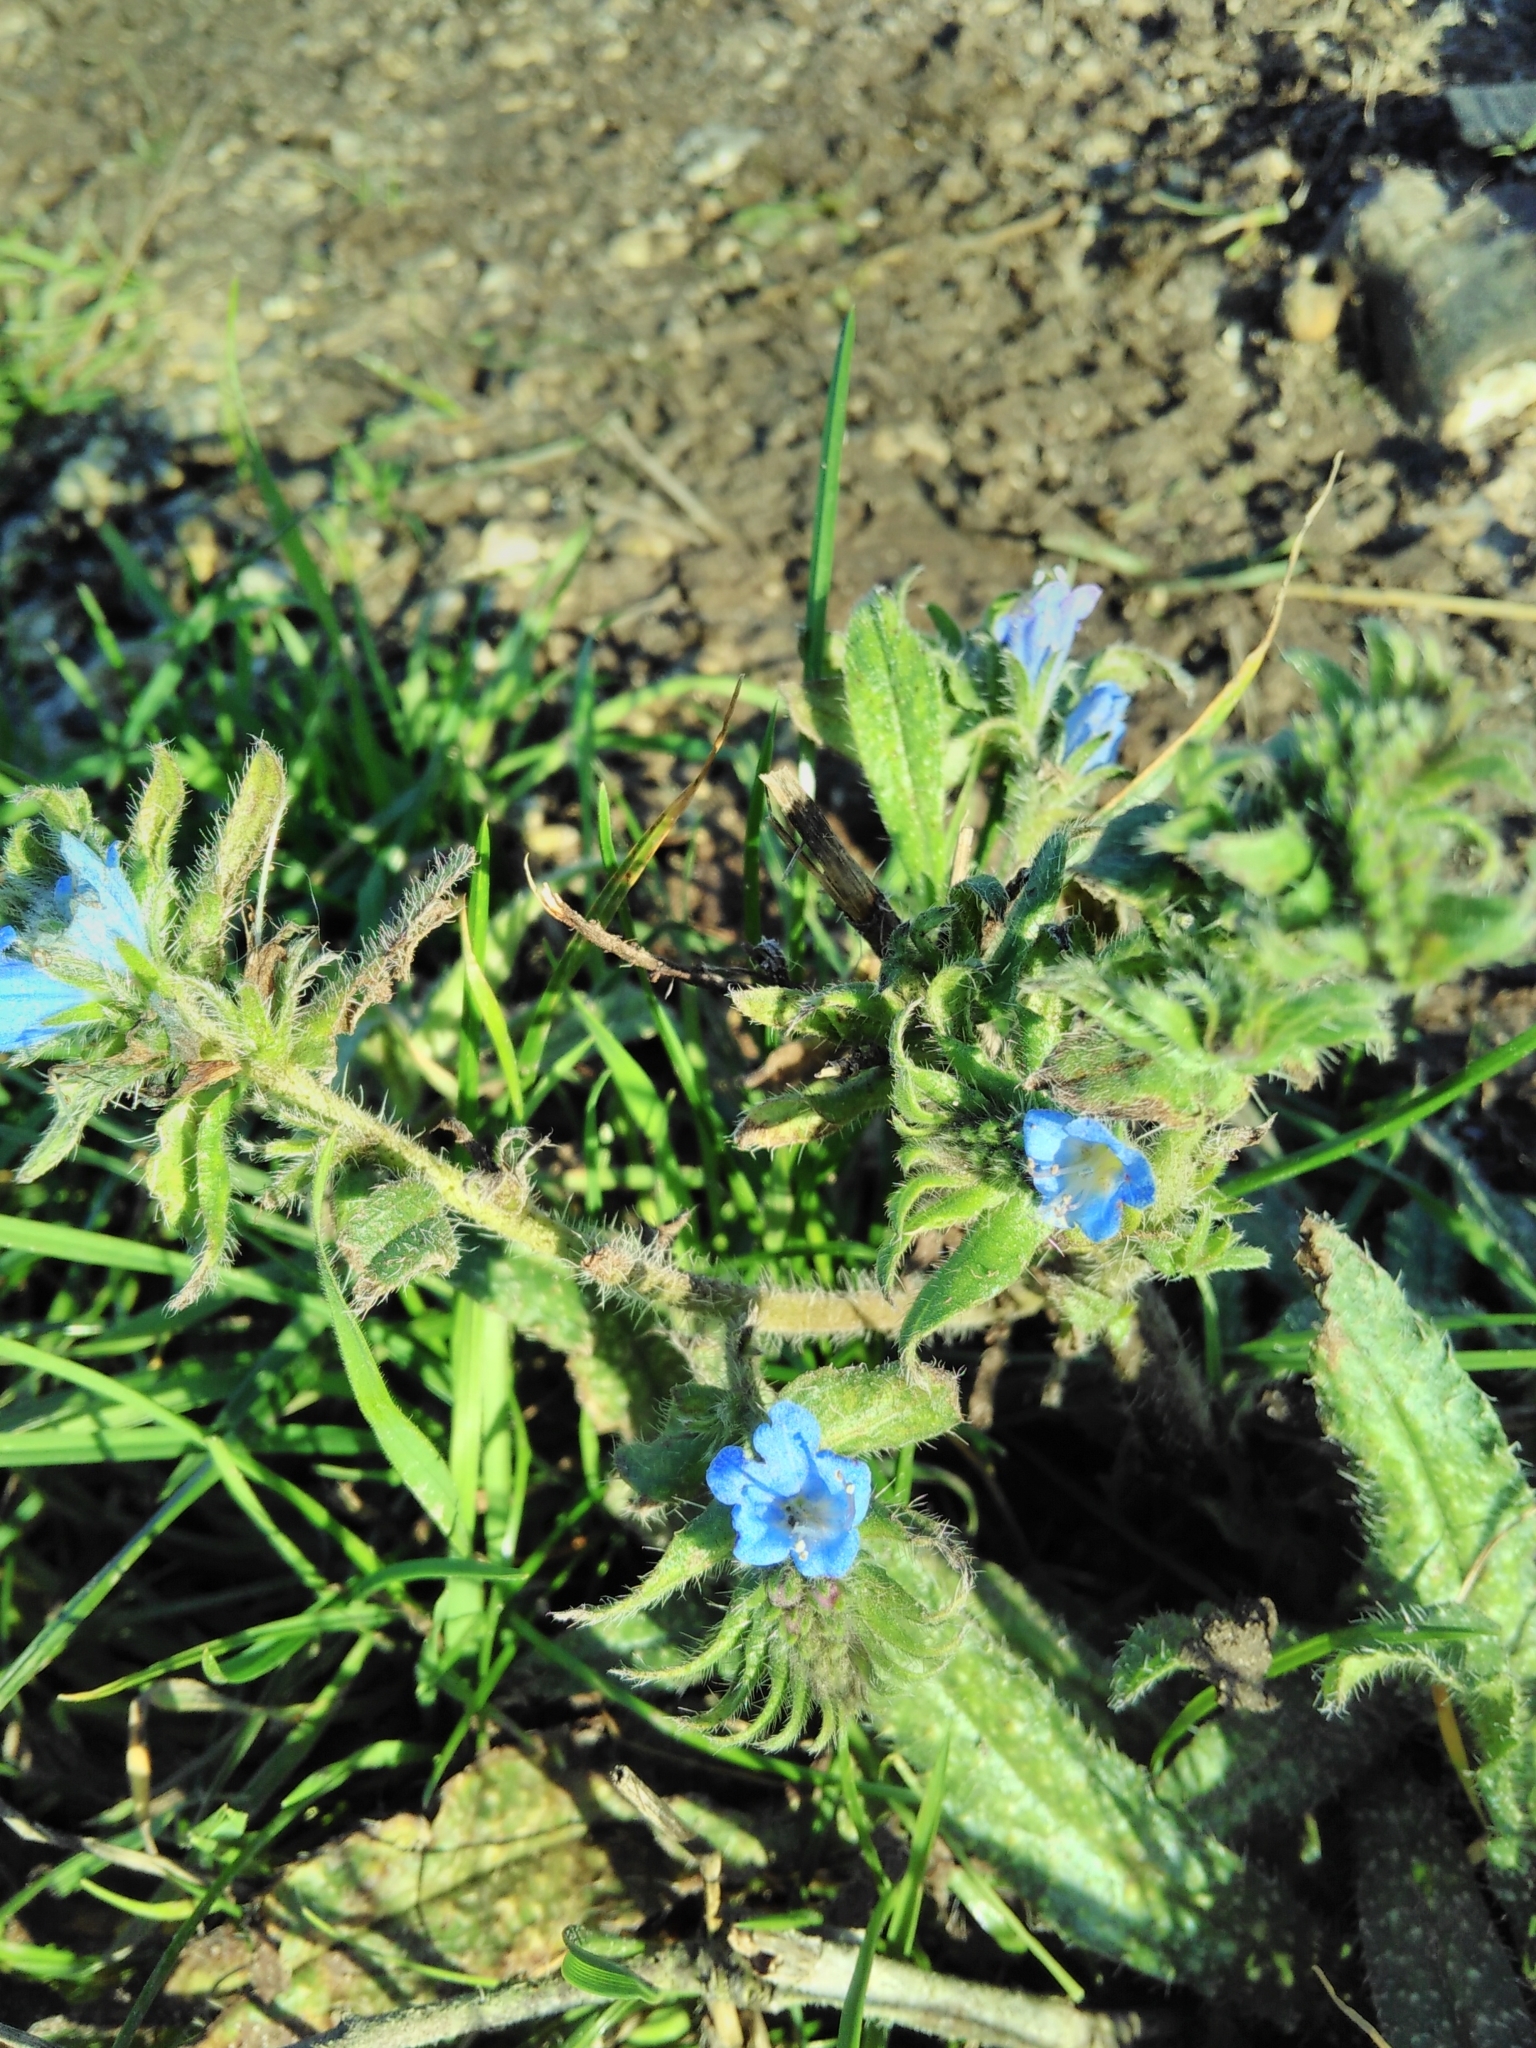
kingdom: Plantae
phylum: Tracheophyta
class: Magnoliopsida
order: Boraginales
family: Boraginaceae
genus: Echium
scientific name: Echium vulgare
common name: Common viper's bugloss
